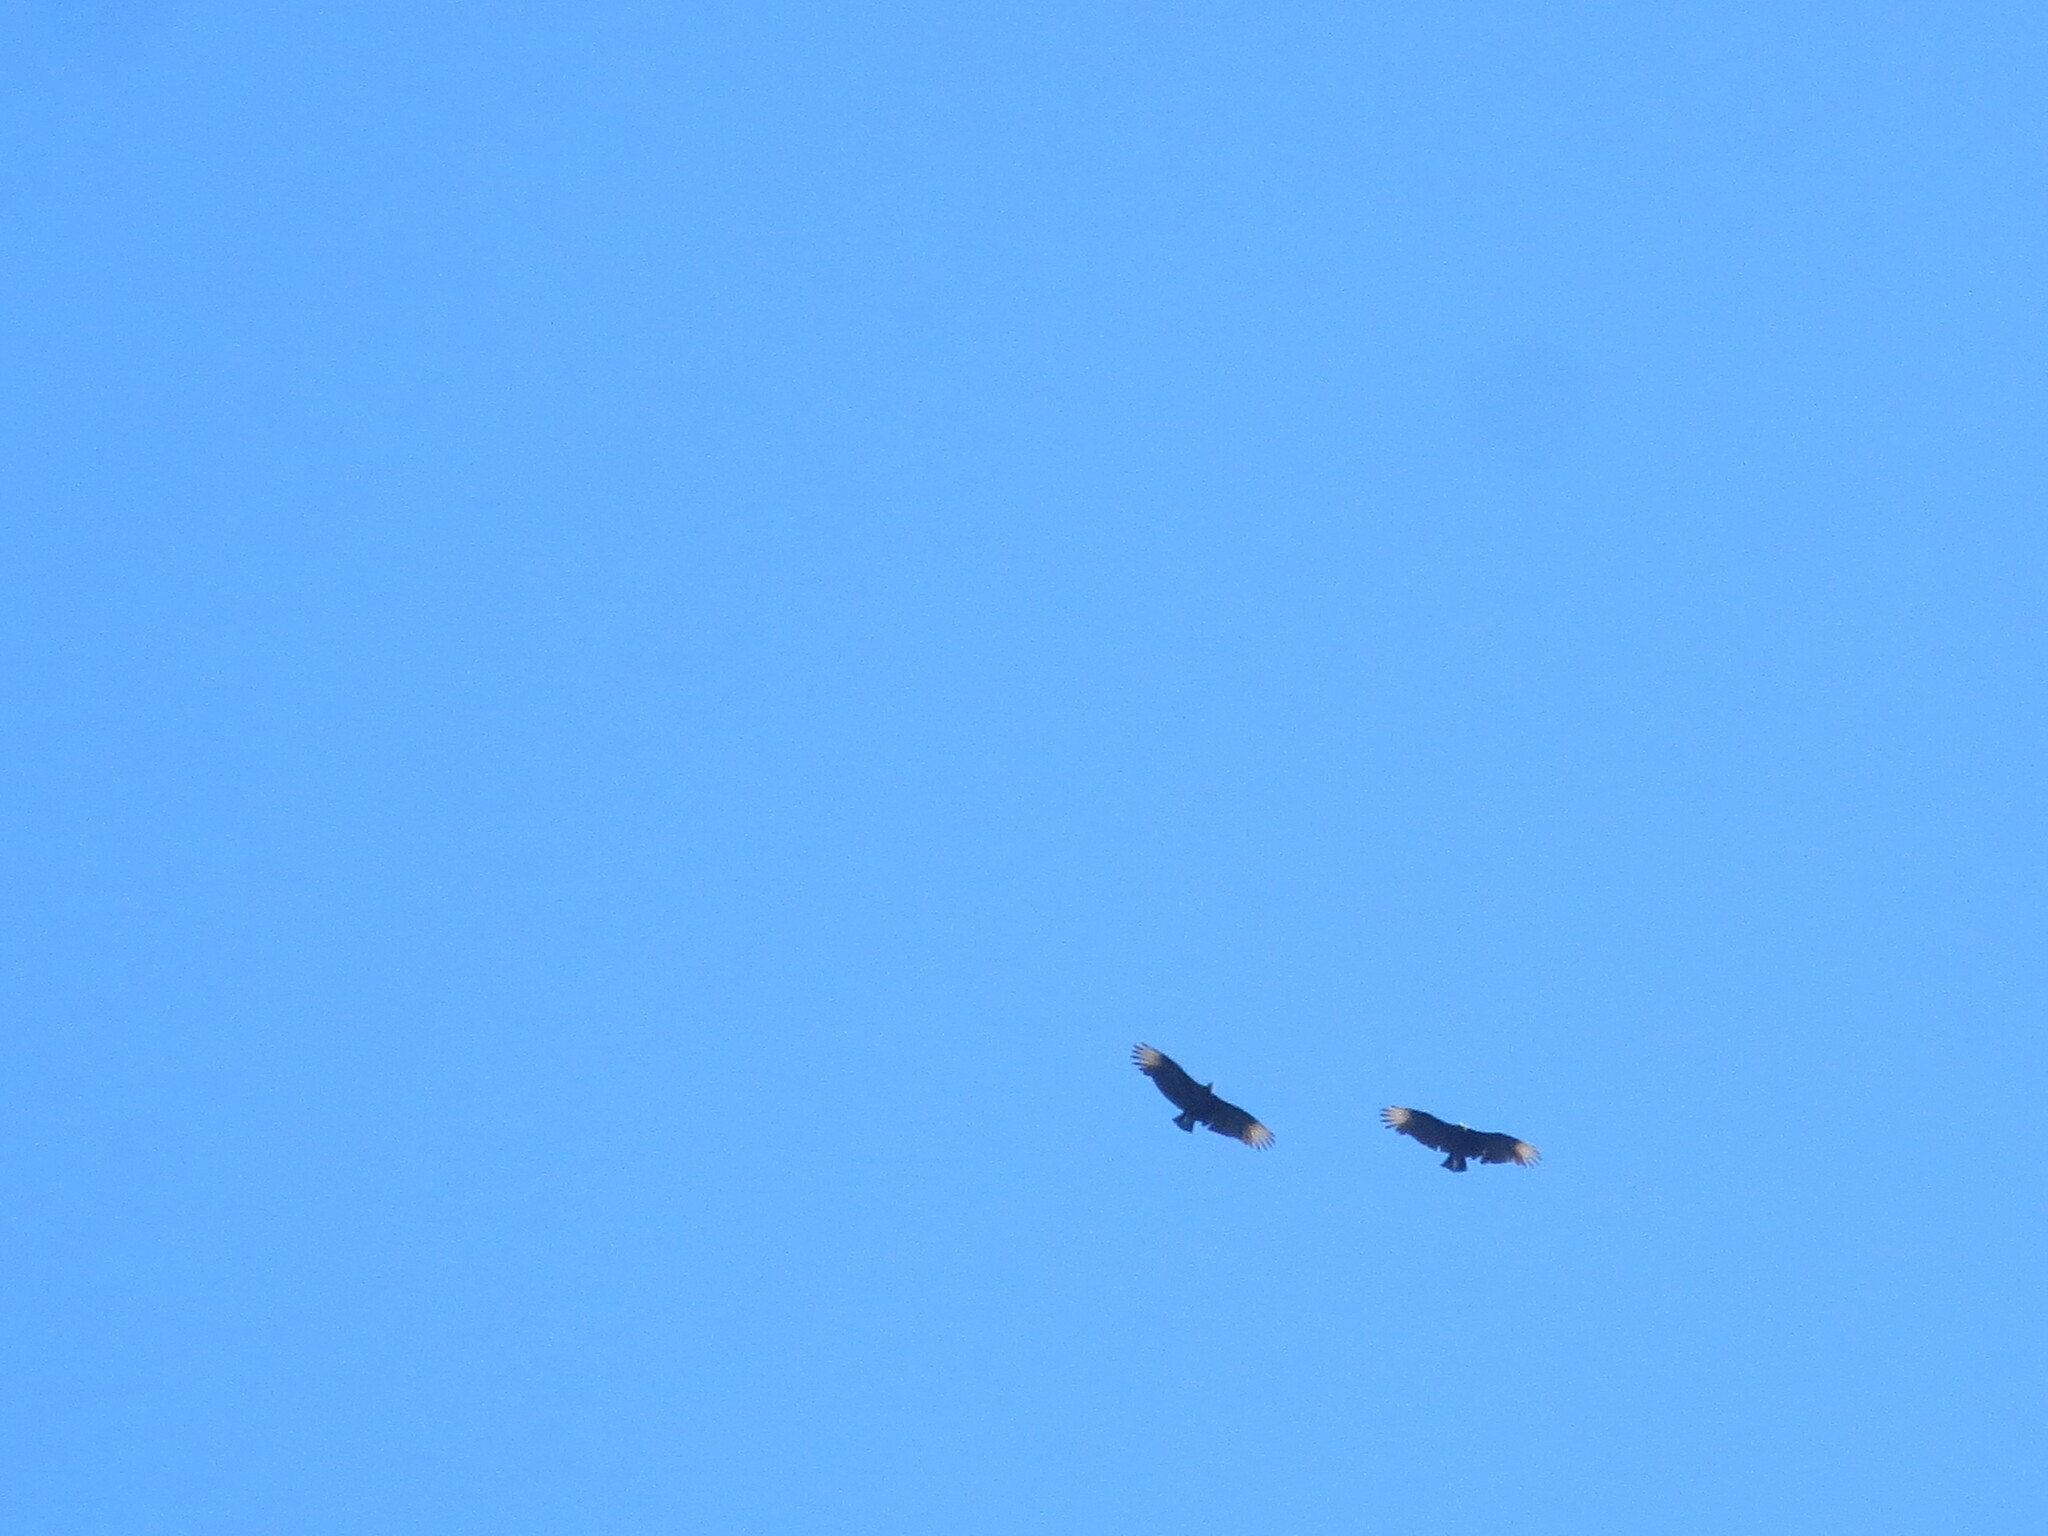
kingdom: Animalia
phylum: Chordata
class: Aves
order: Accipitriformes
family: Cathartidae
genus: Coragyps
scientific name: Coragyps atratus
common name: Black vulture
